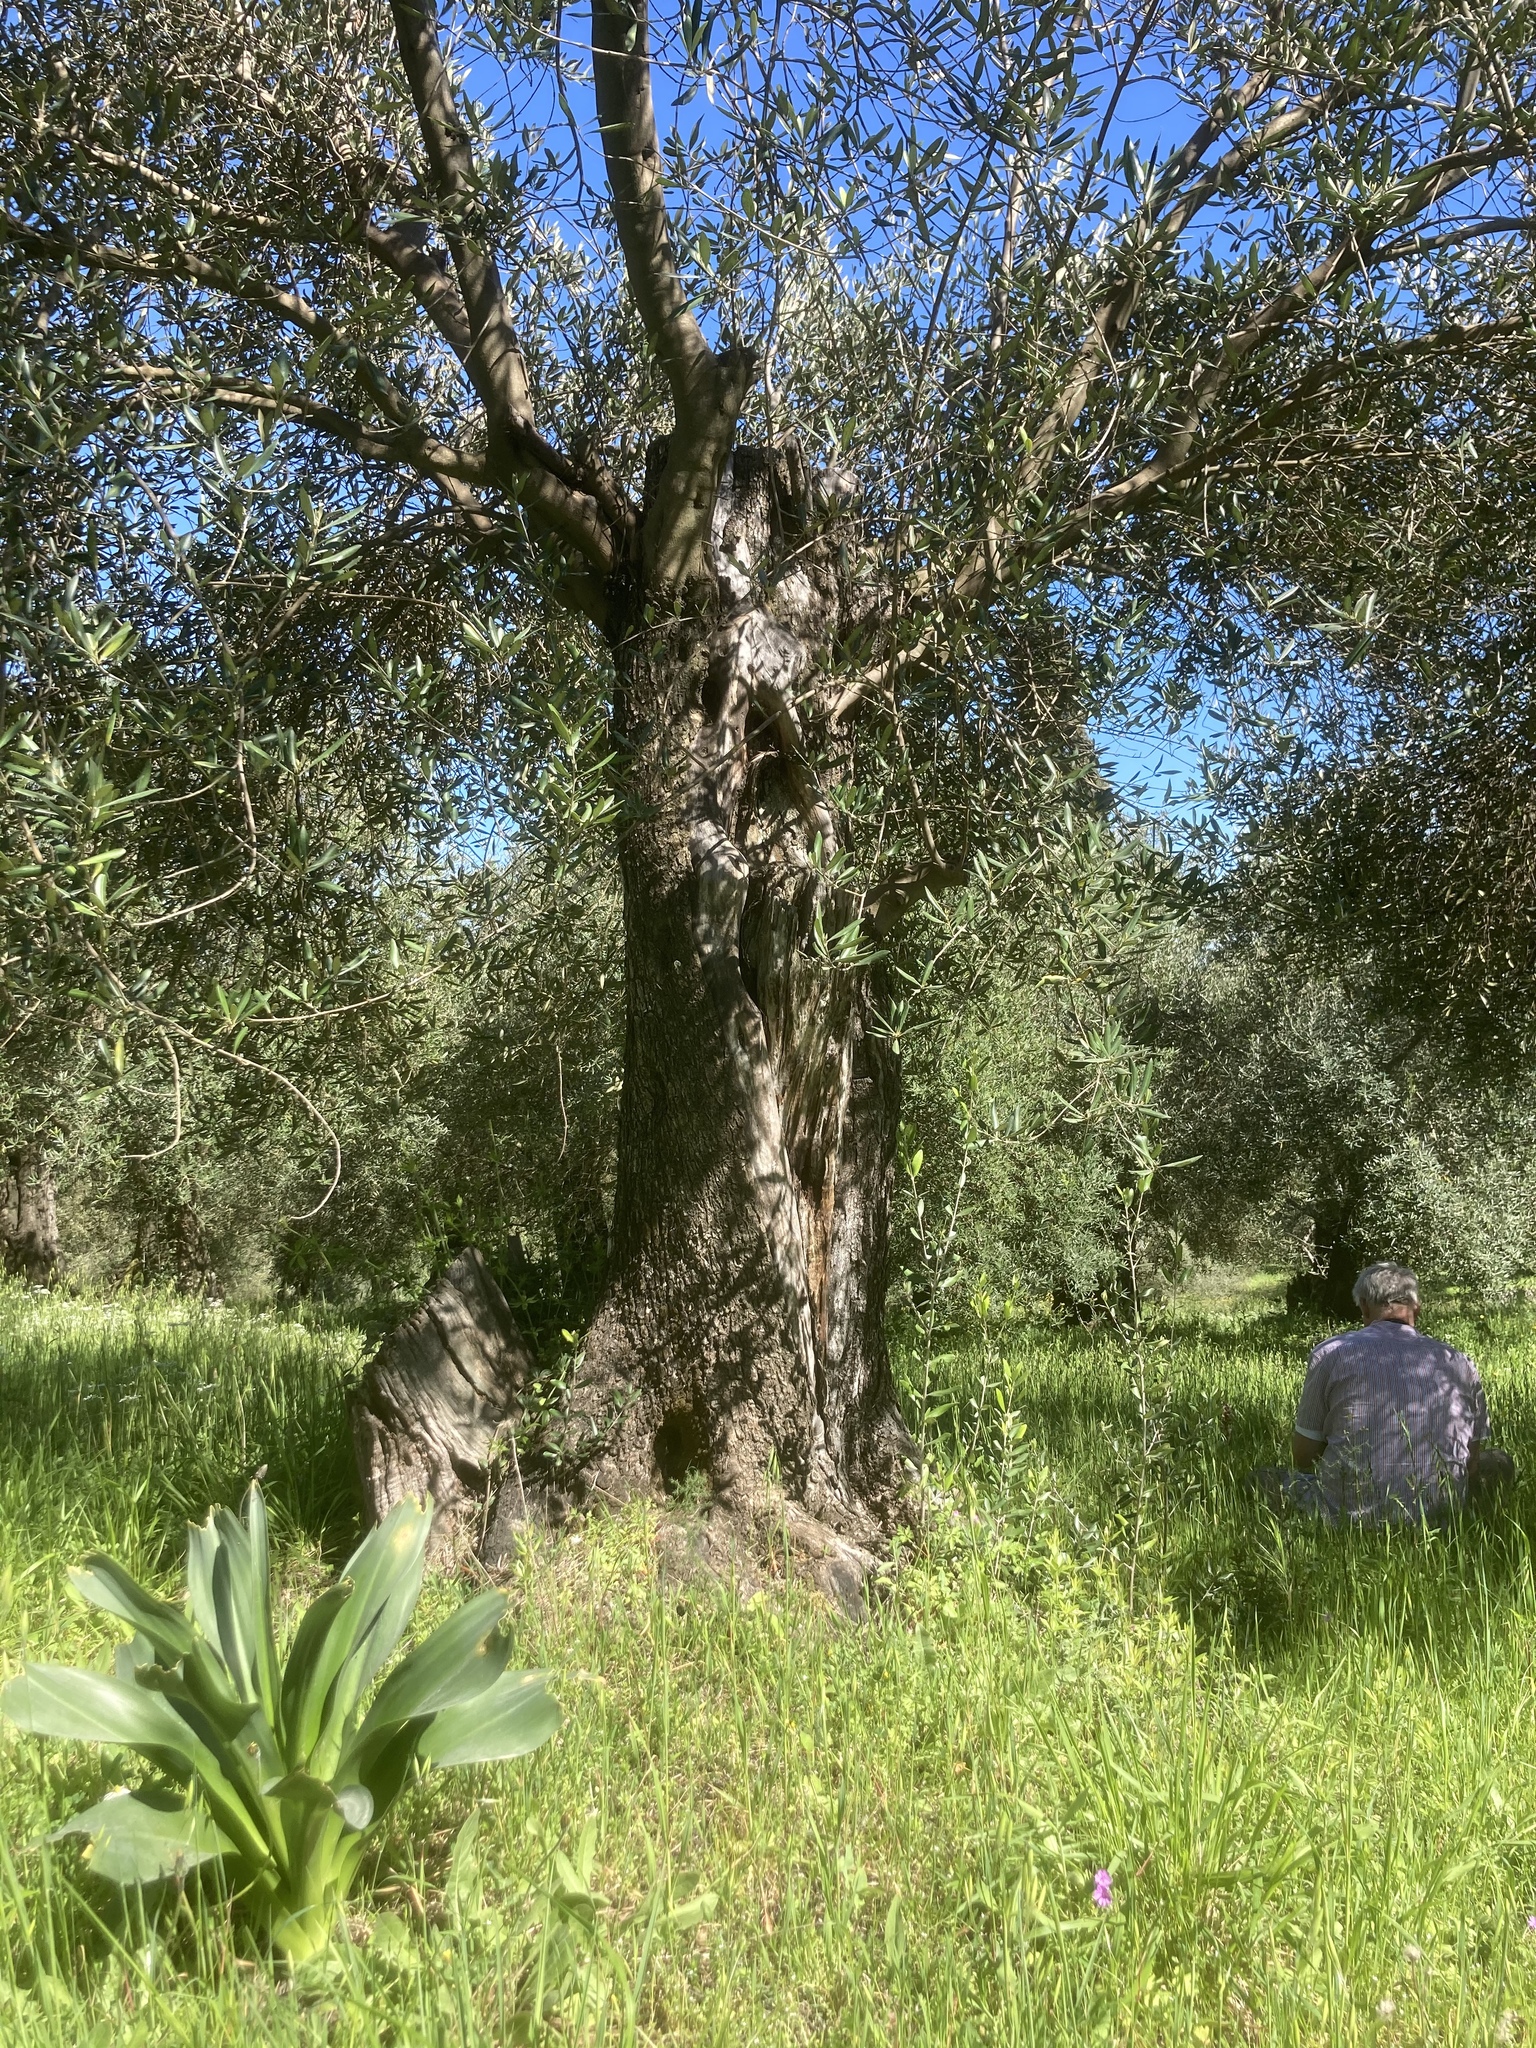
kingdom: Plantae
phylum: Tracheophyta
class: Liliopsida
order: Asparagales
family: Asparagaceae
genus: Drimia
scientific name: Drimia numidica
